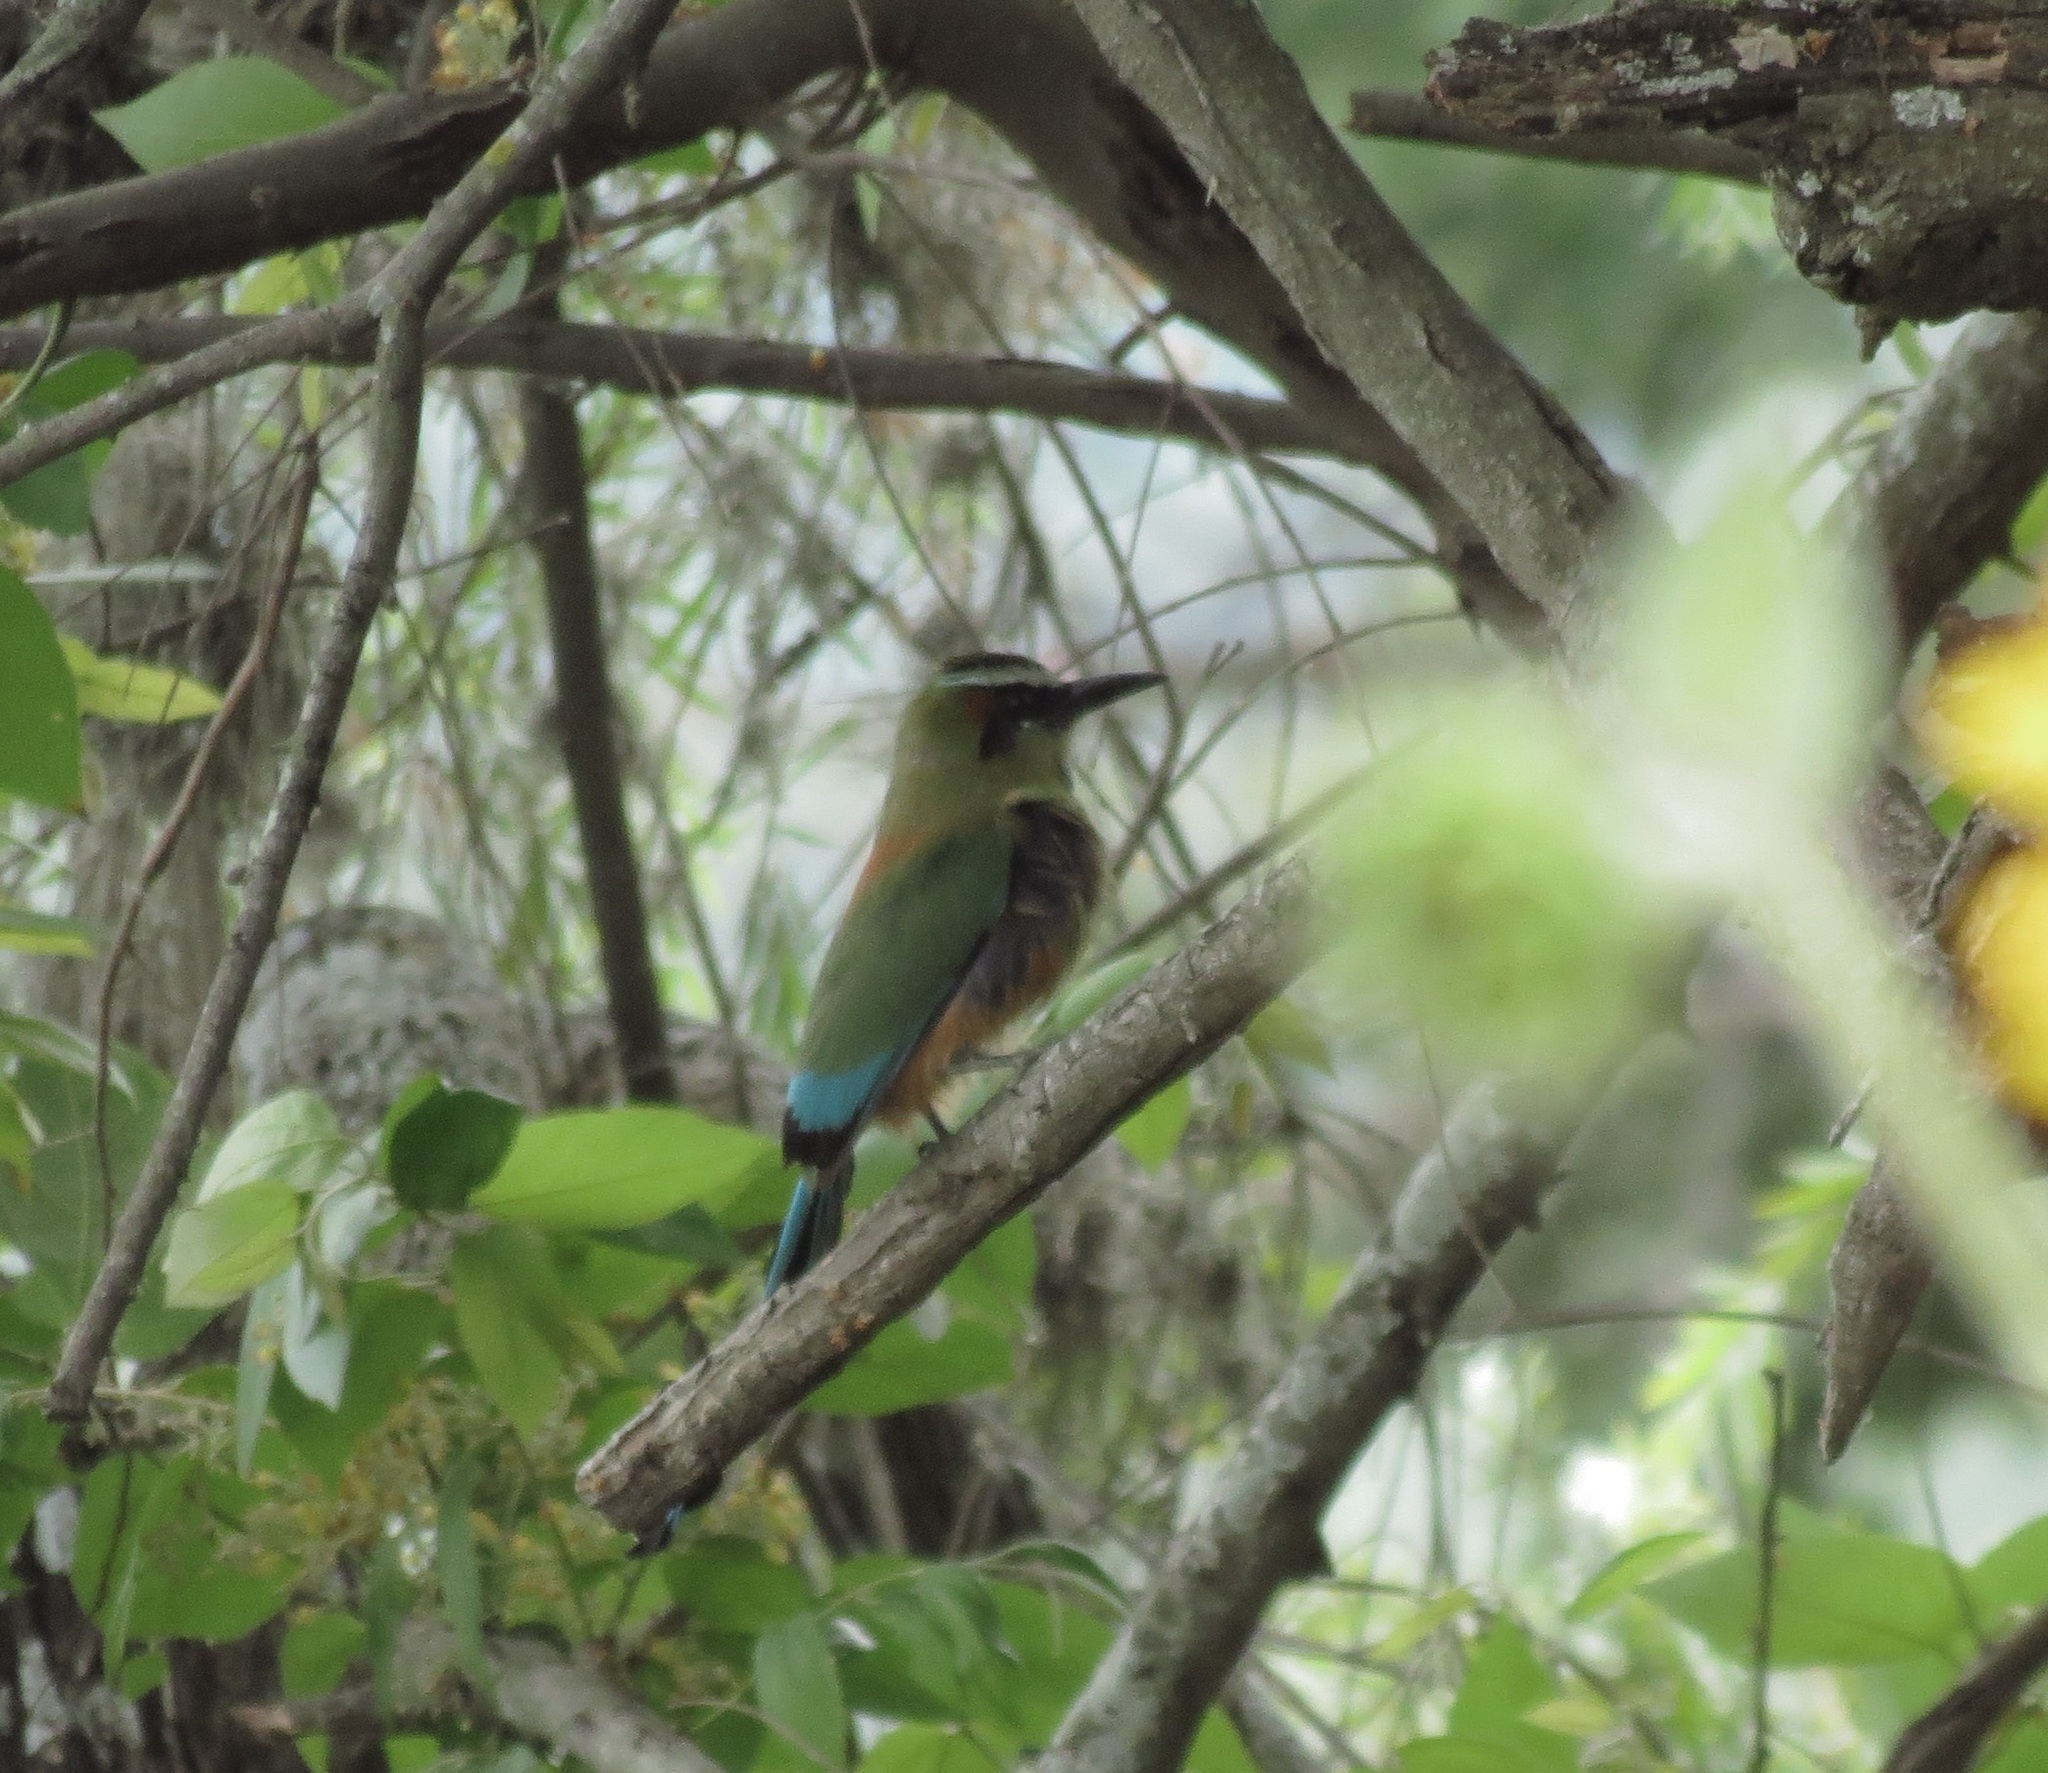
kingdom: Animalia
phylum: Chordata
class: Aves
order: Coraciiformes
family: Momotidae
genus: Eumomota
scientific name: Eumomota superciliosa
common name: Turquoise-browed motmot
